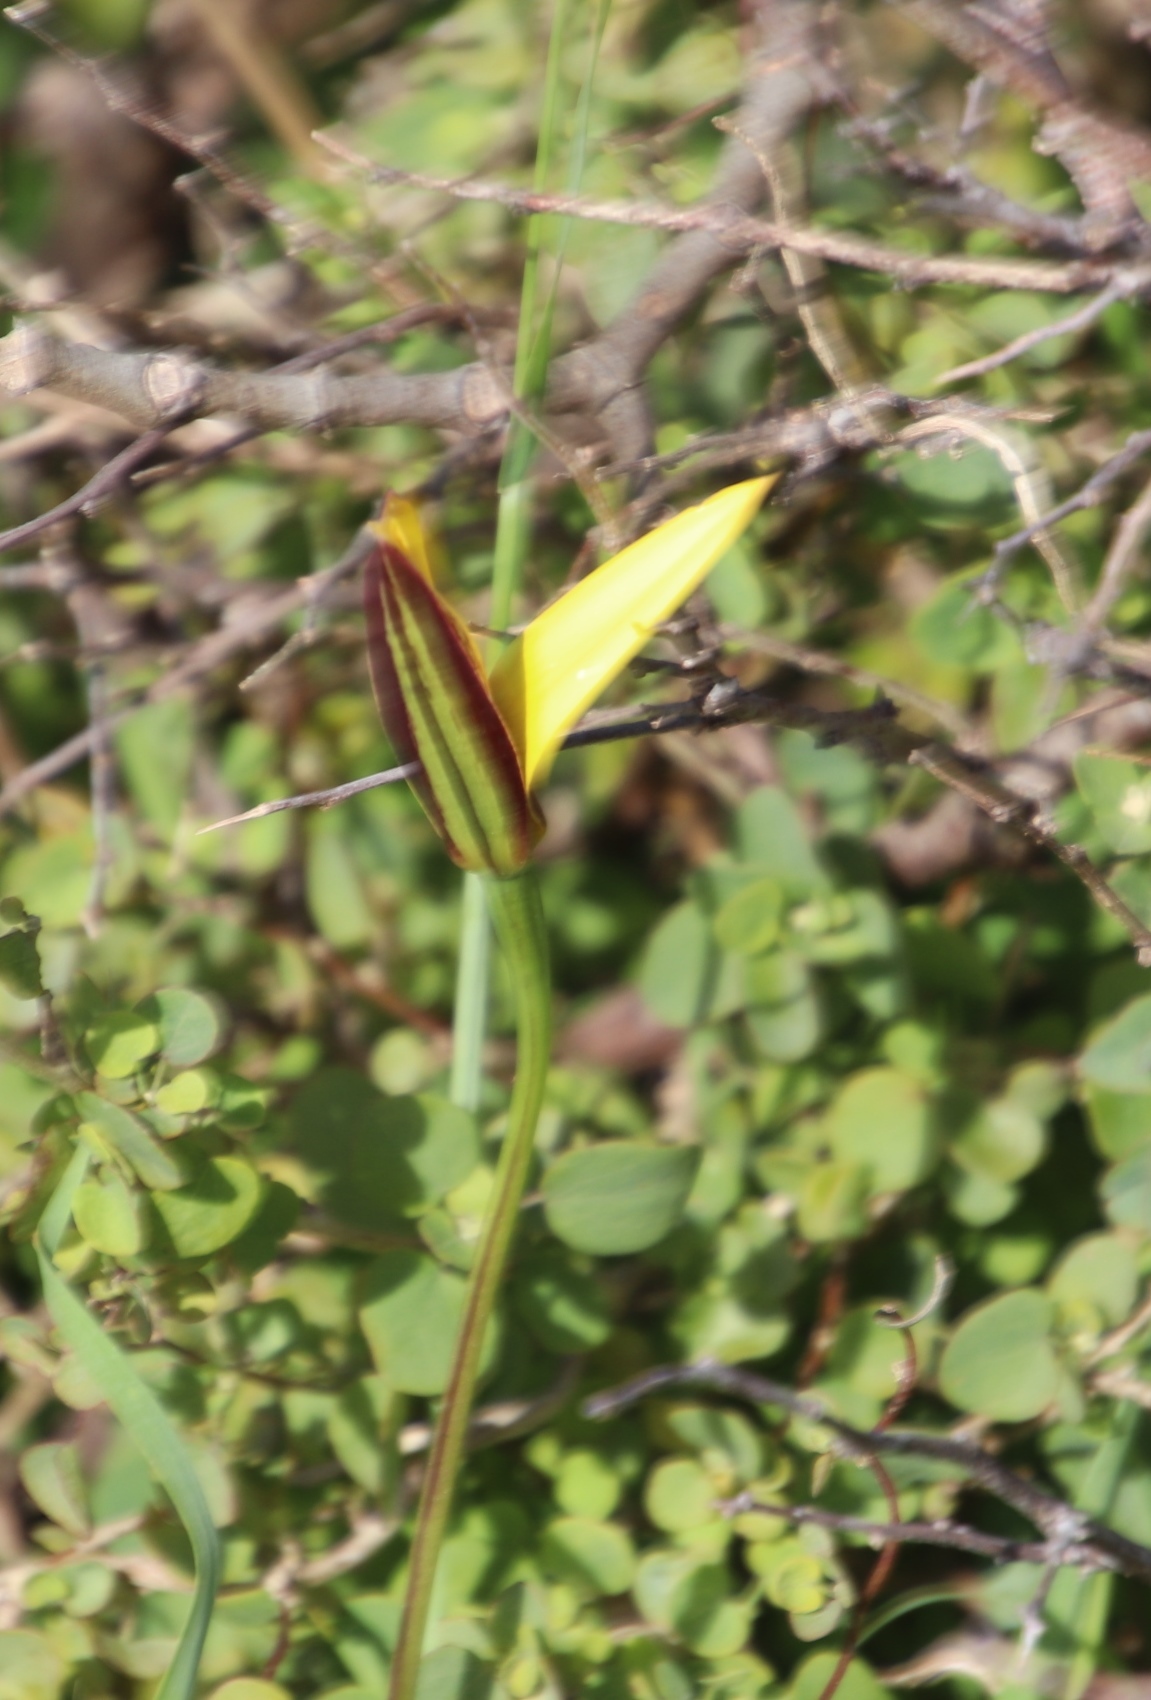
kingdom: Plantae
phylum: Tracheophyta
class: Liliopsida
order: Asparagales
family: Hypoxidaceae
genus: Pauridia
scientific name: Pauridia capensis
